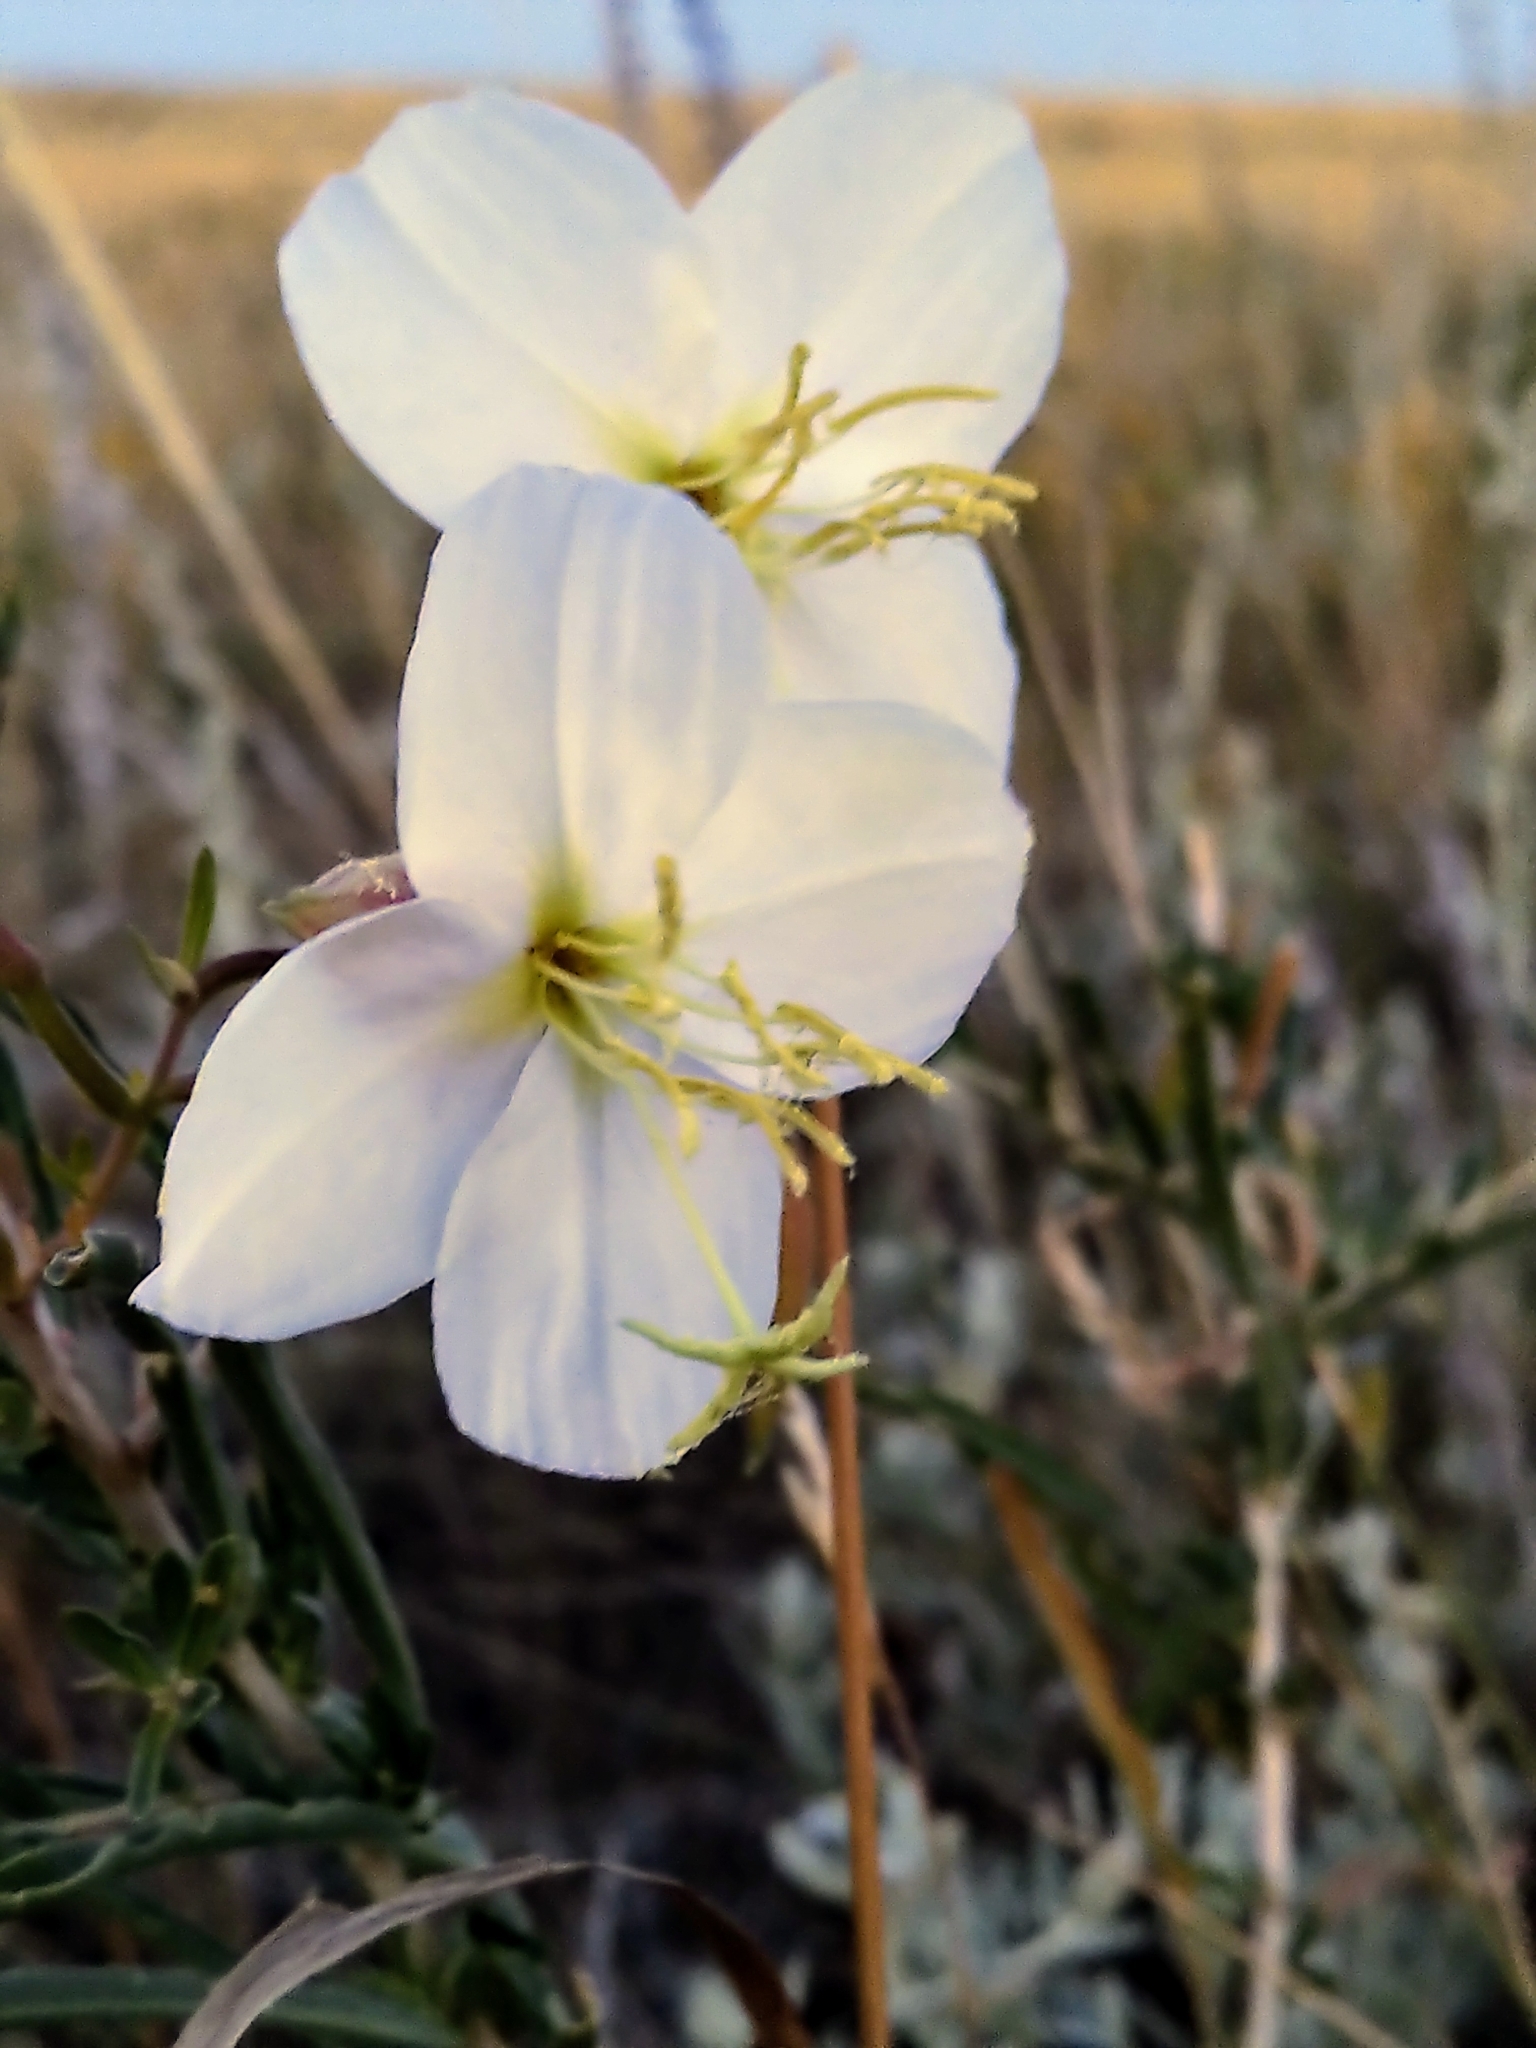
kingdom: Plantae
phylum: Tracheophyta
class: Magnoliopsida
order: Myrtales
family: Onagraceae
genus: Oenothera
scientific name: Oenothera nuttallii
